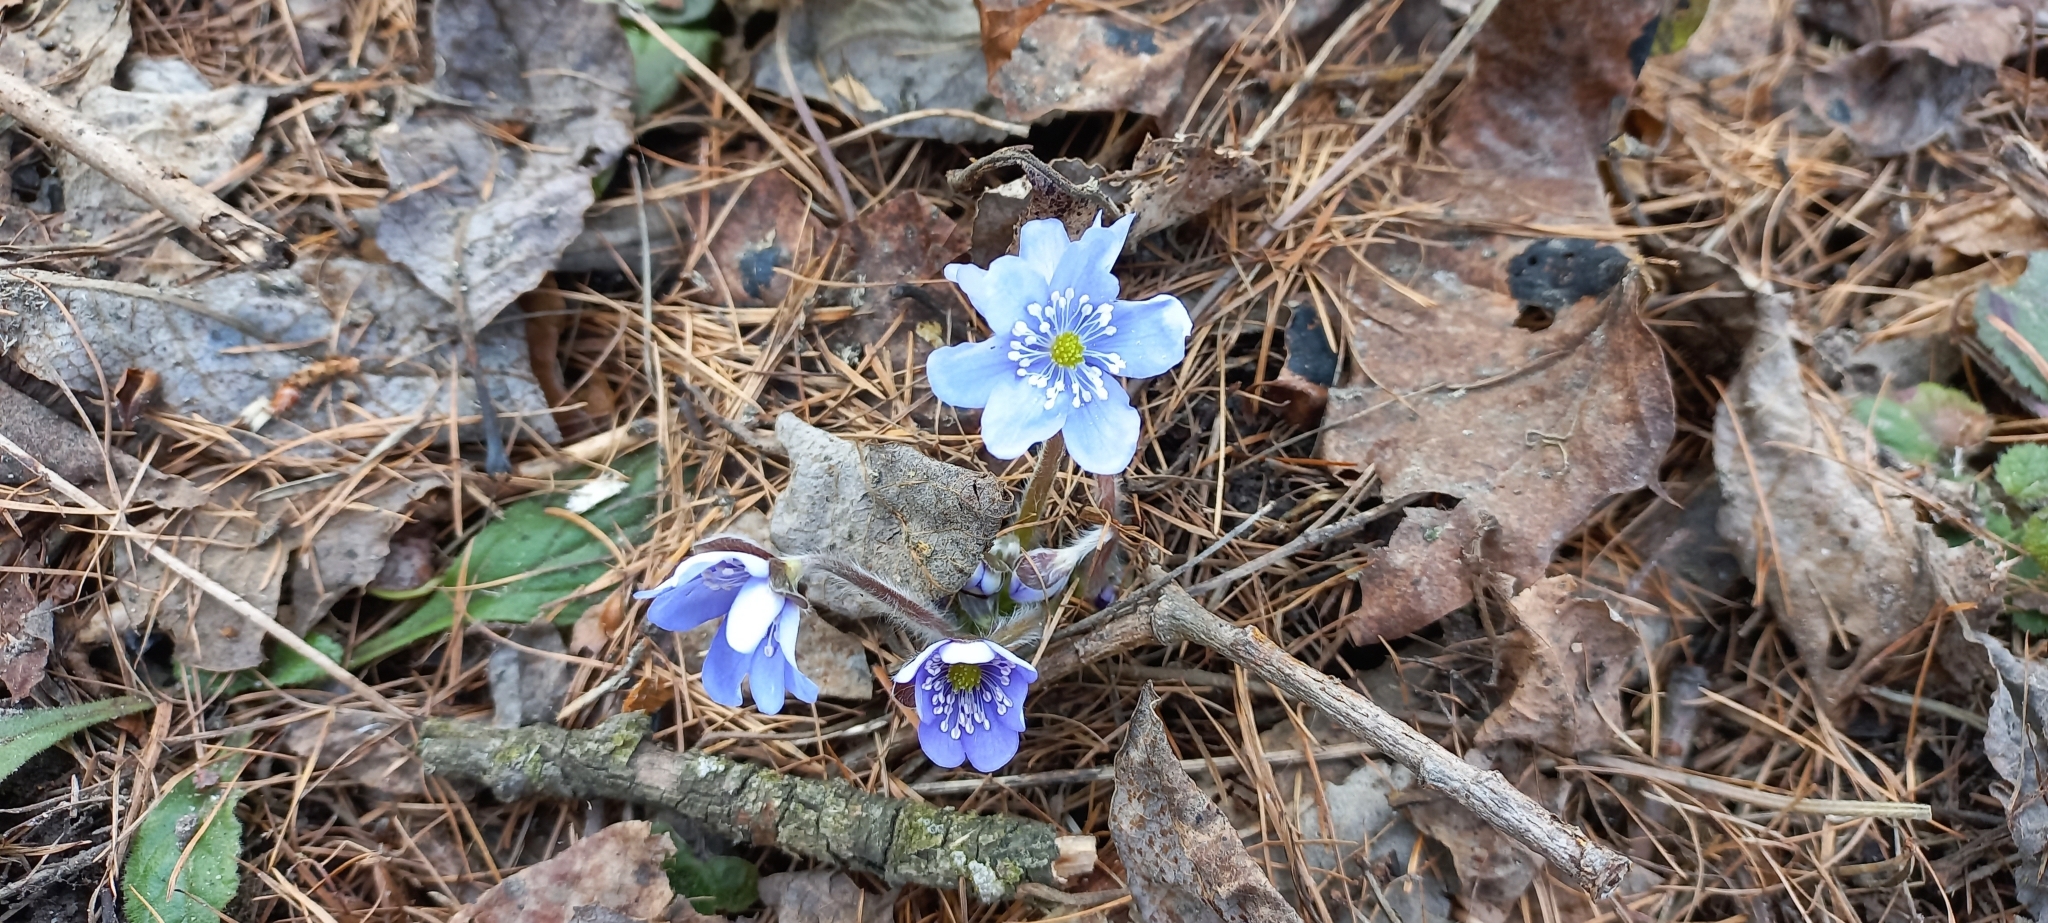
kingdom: Plantae
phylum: Tracheophyta
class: Magnoliopsida
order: Ranunculales
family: Ranunculaceae
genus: Hepatica
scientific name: Hepatica nobilis
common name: Liverleaf
